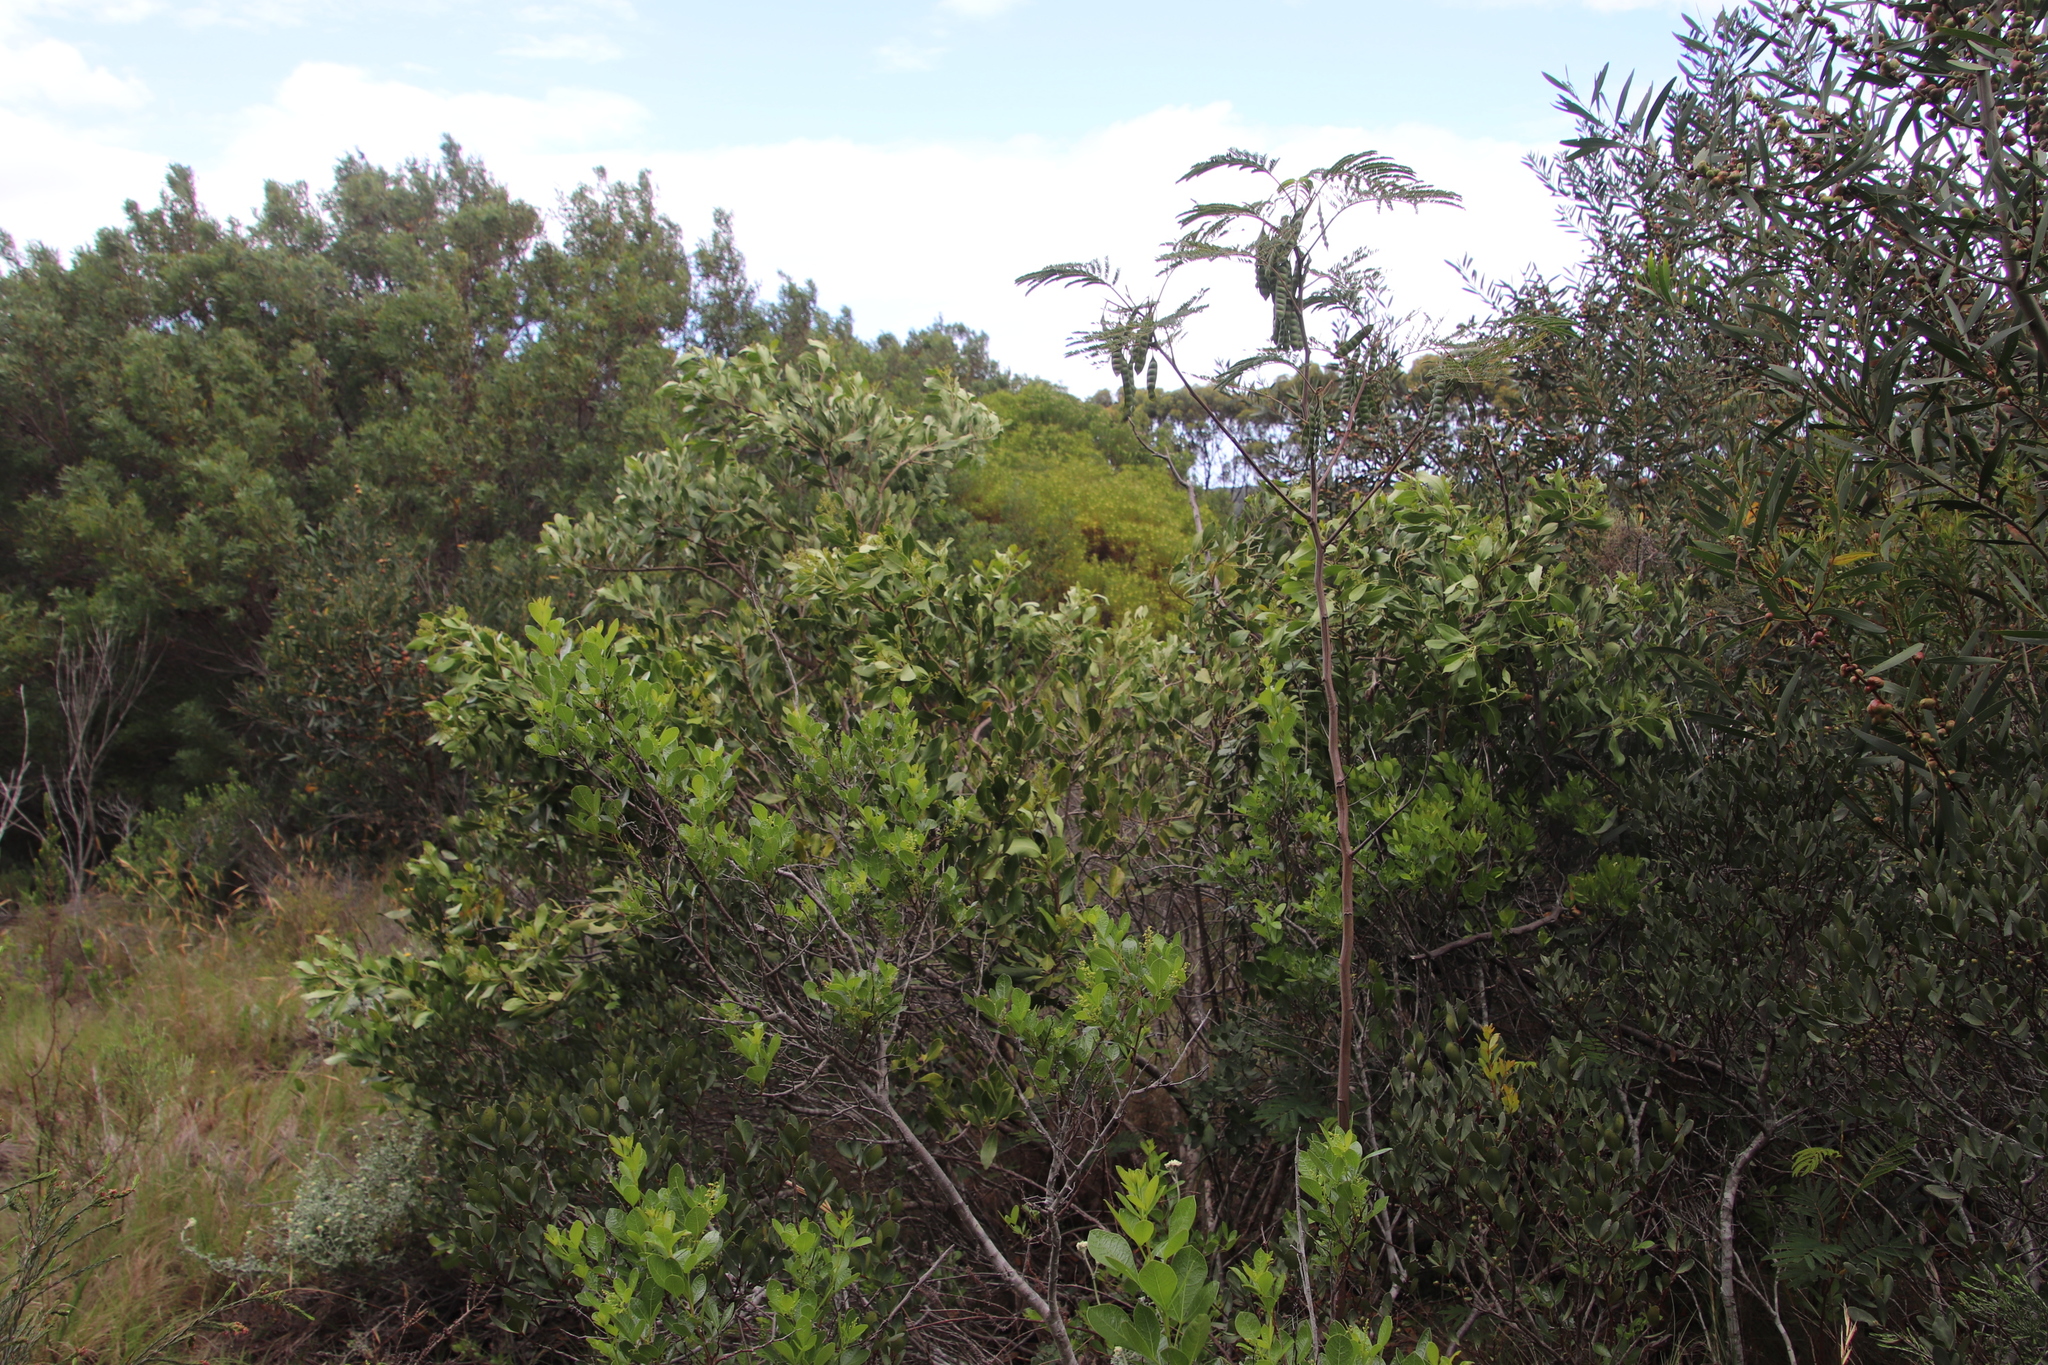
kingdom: Plantae
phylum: Tracheophyta
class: Magnoliopsida
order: Fabales
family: Fabaceae
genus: Paraserianthes
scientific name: Paraserianthes lophantha
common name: Plume albizia
